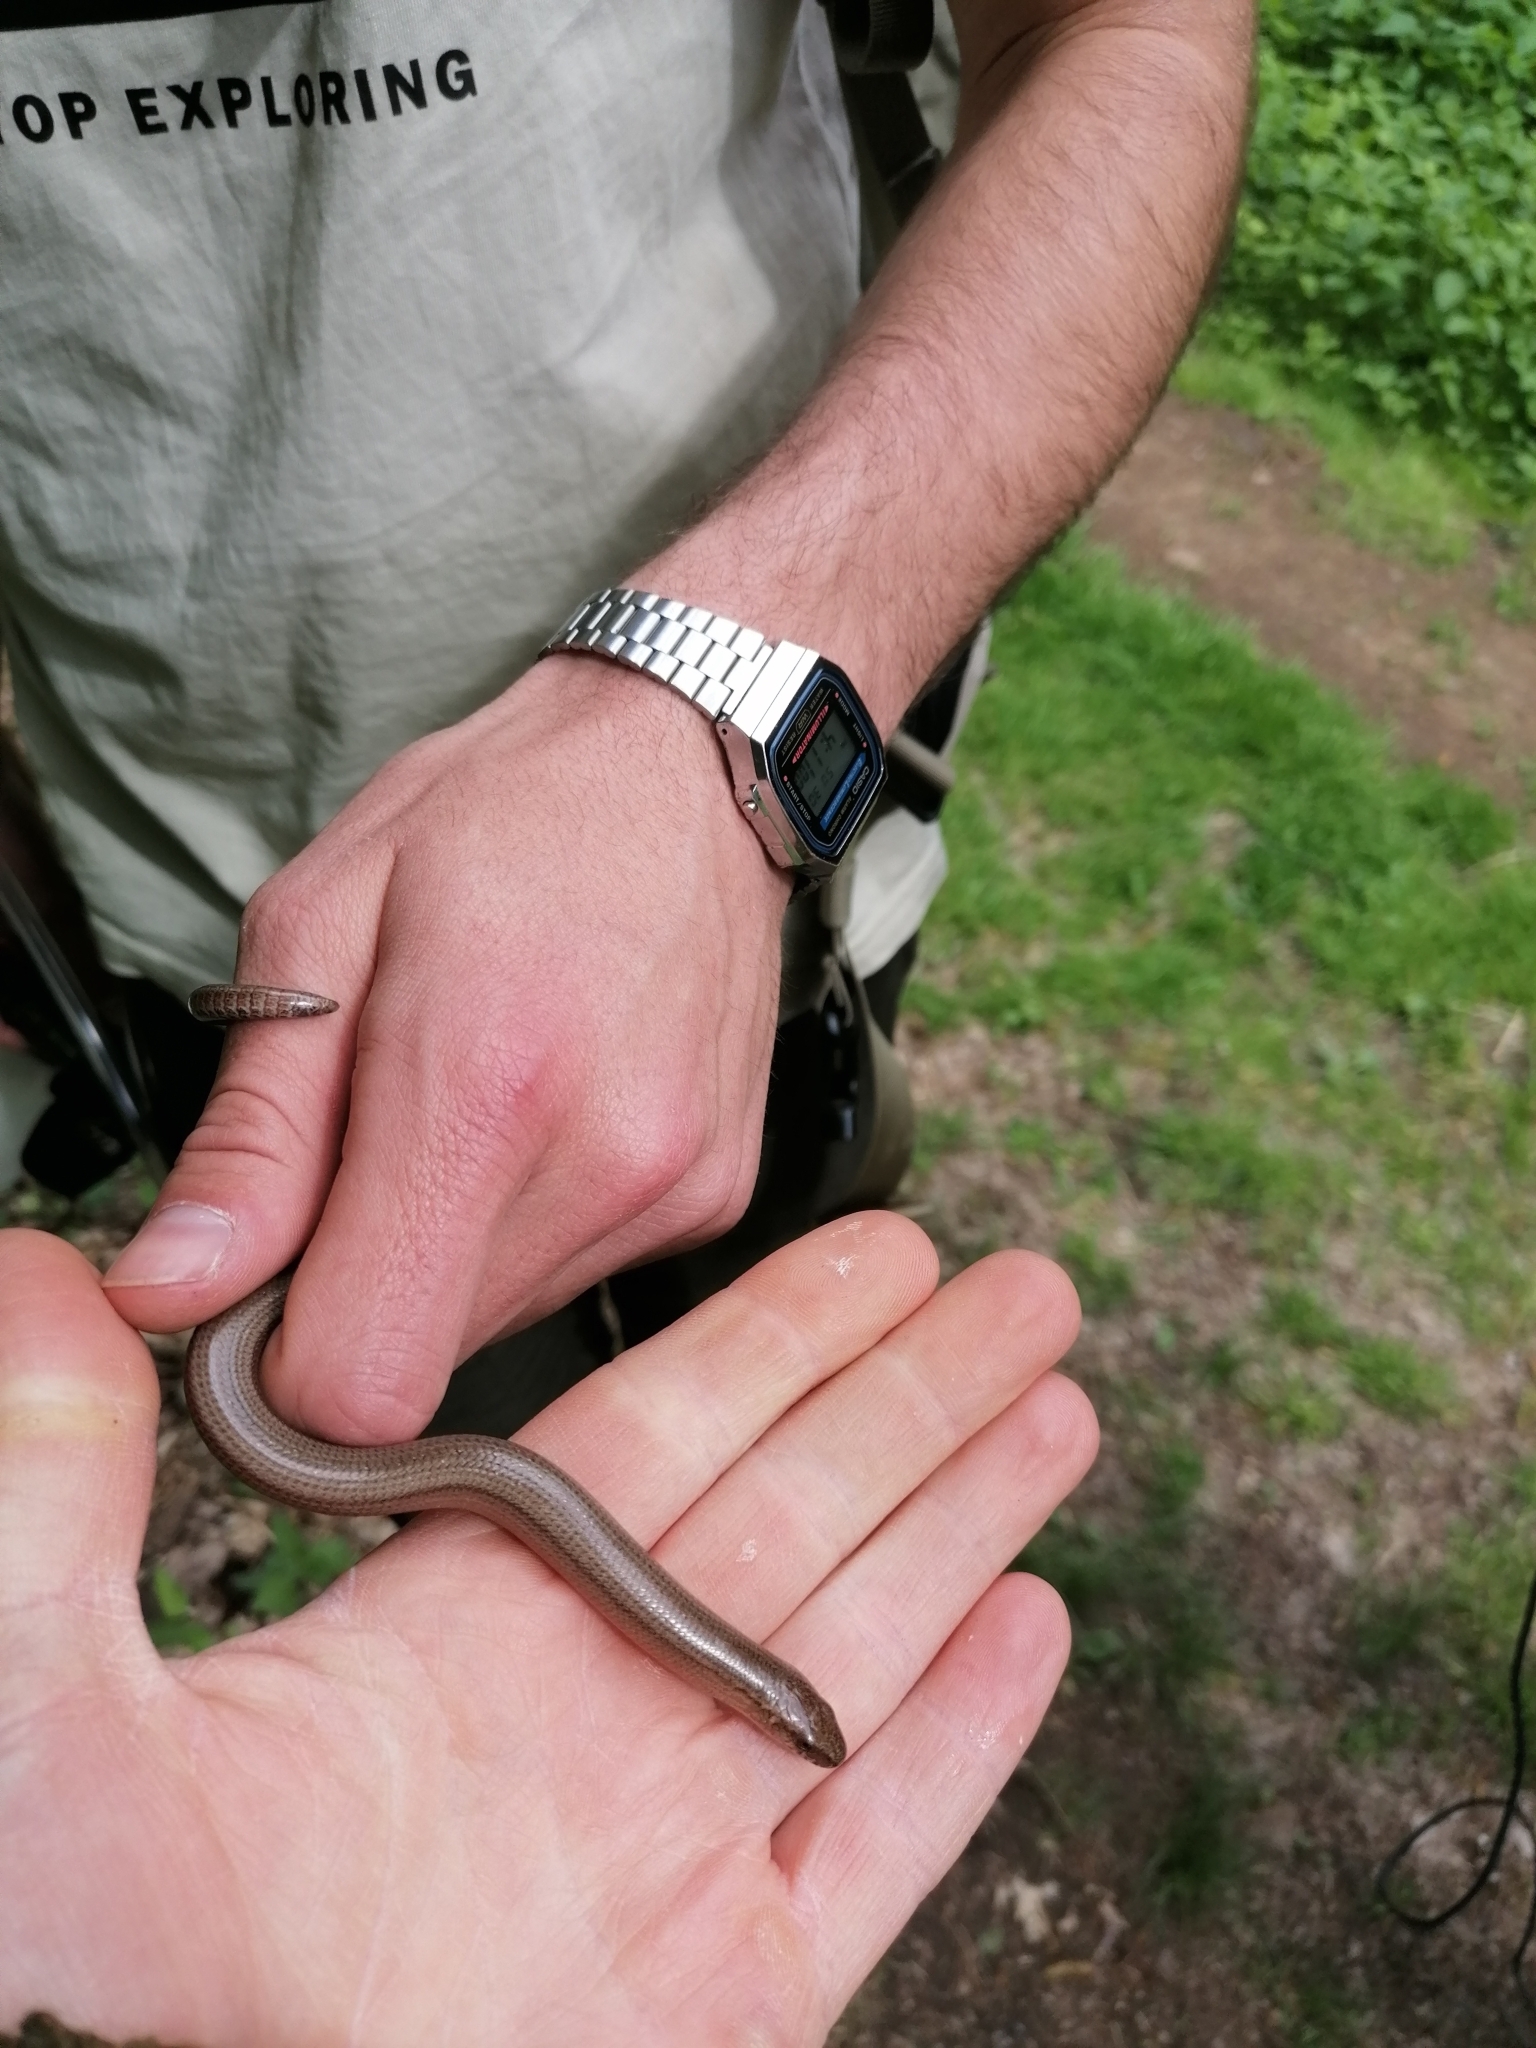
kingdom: Animalia
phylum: Chordata
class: Squamata
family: Anguidae
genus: Anguis
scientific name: Anguis fragilis
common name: Slow worm
